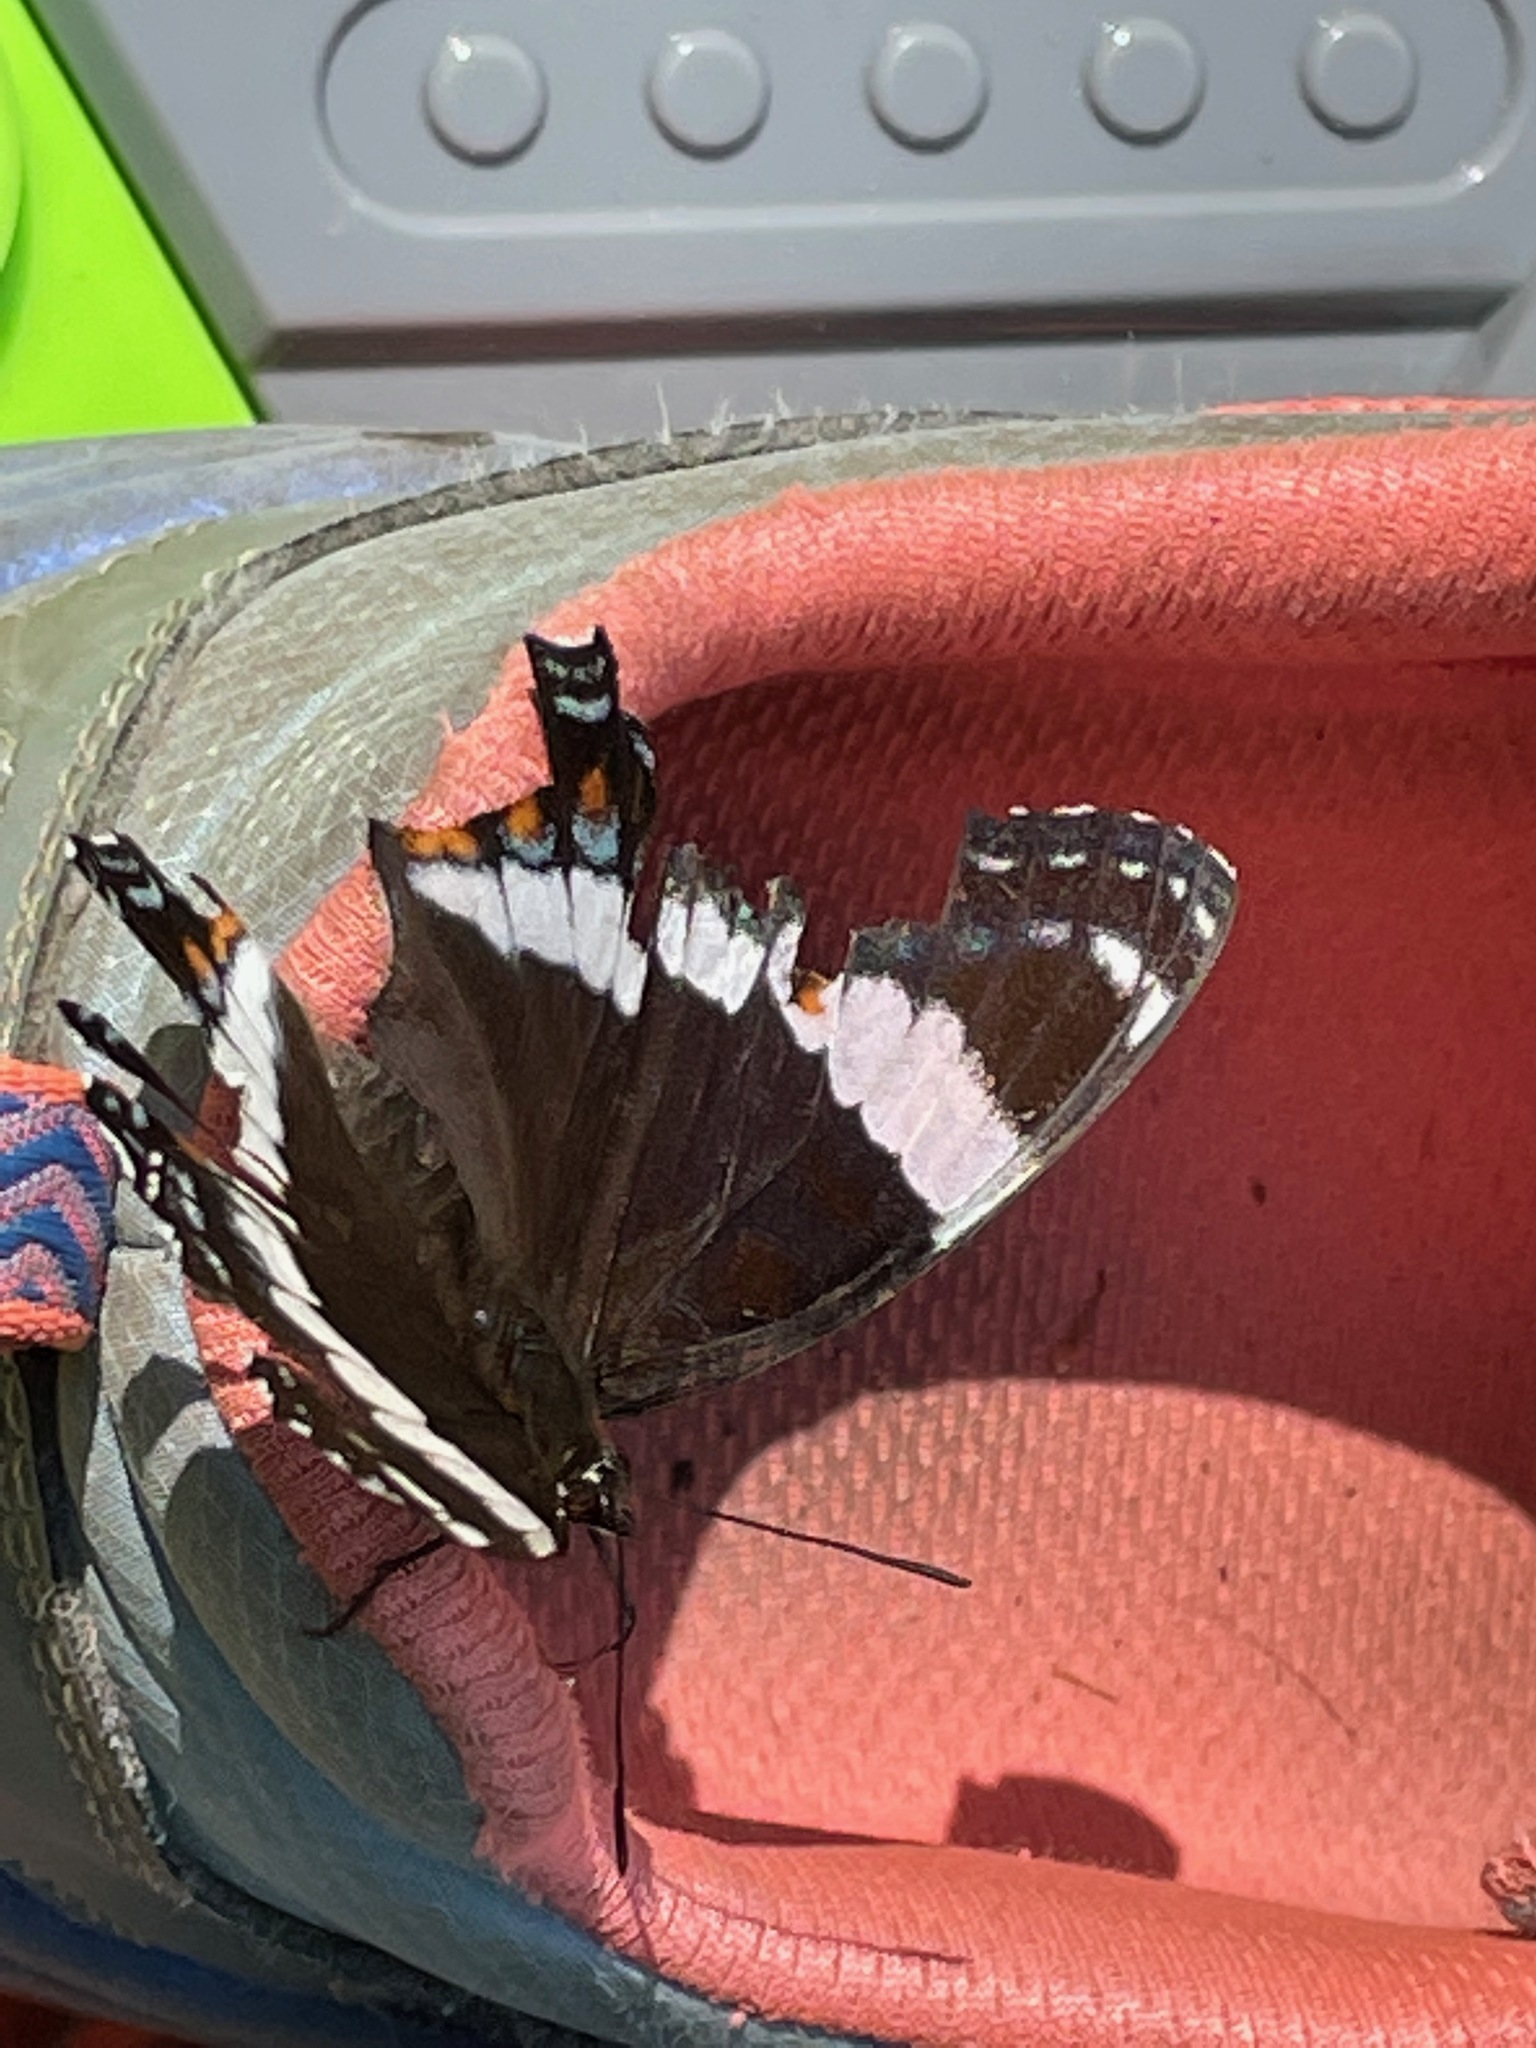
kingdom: Animalia
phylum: Arthropoda
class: Insecta
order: Lepidoptera
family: Nymphalidae
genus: Limenitis
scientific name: Limenitis arthemis
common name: Red-spotted admiral
